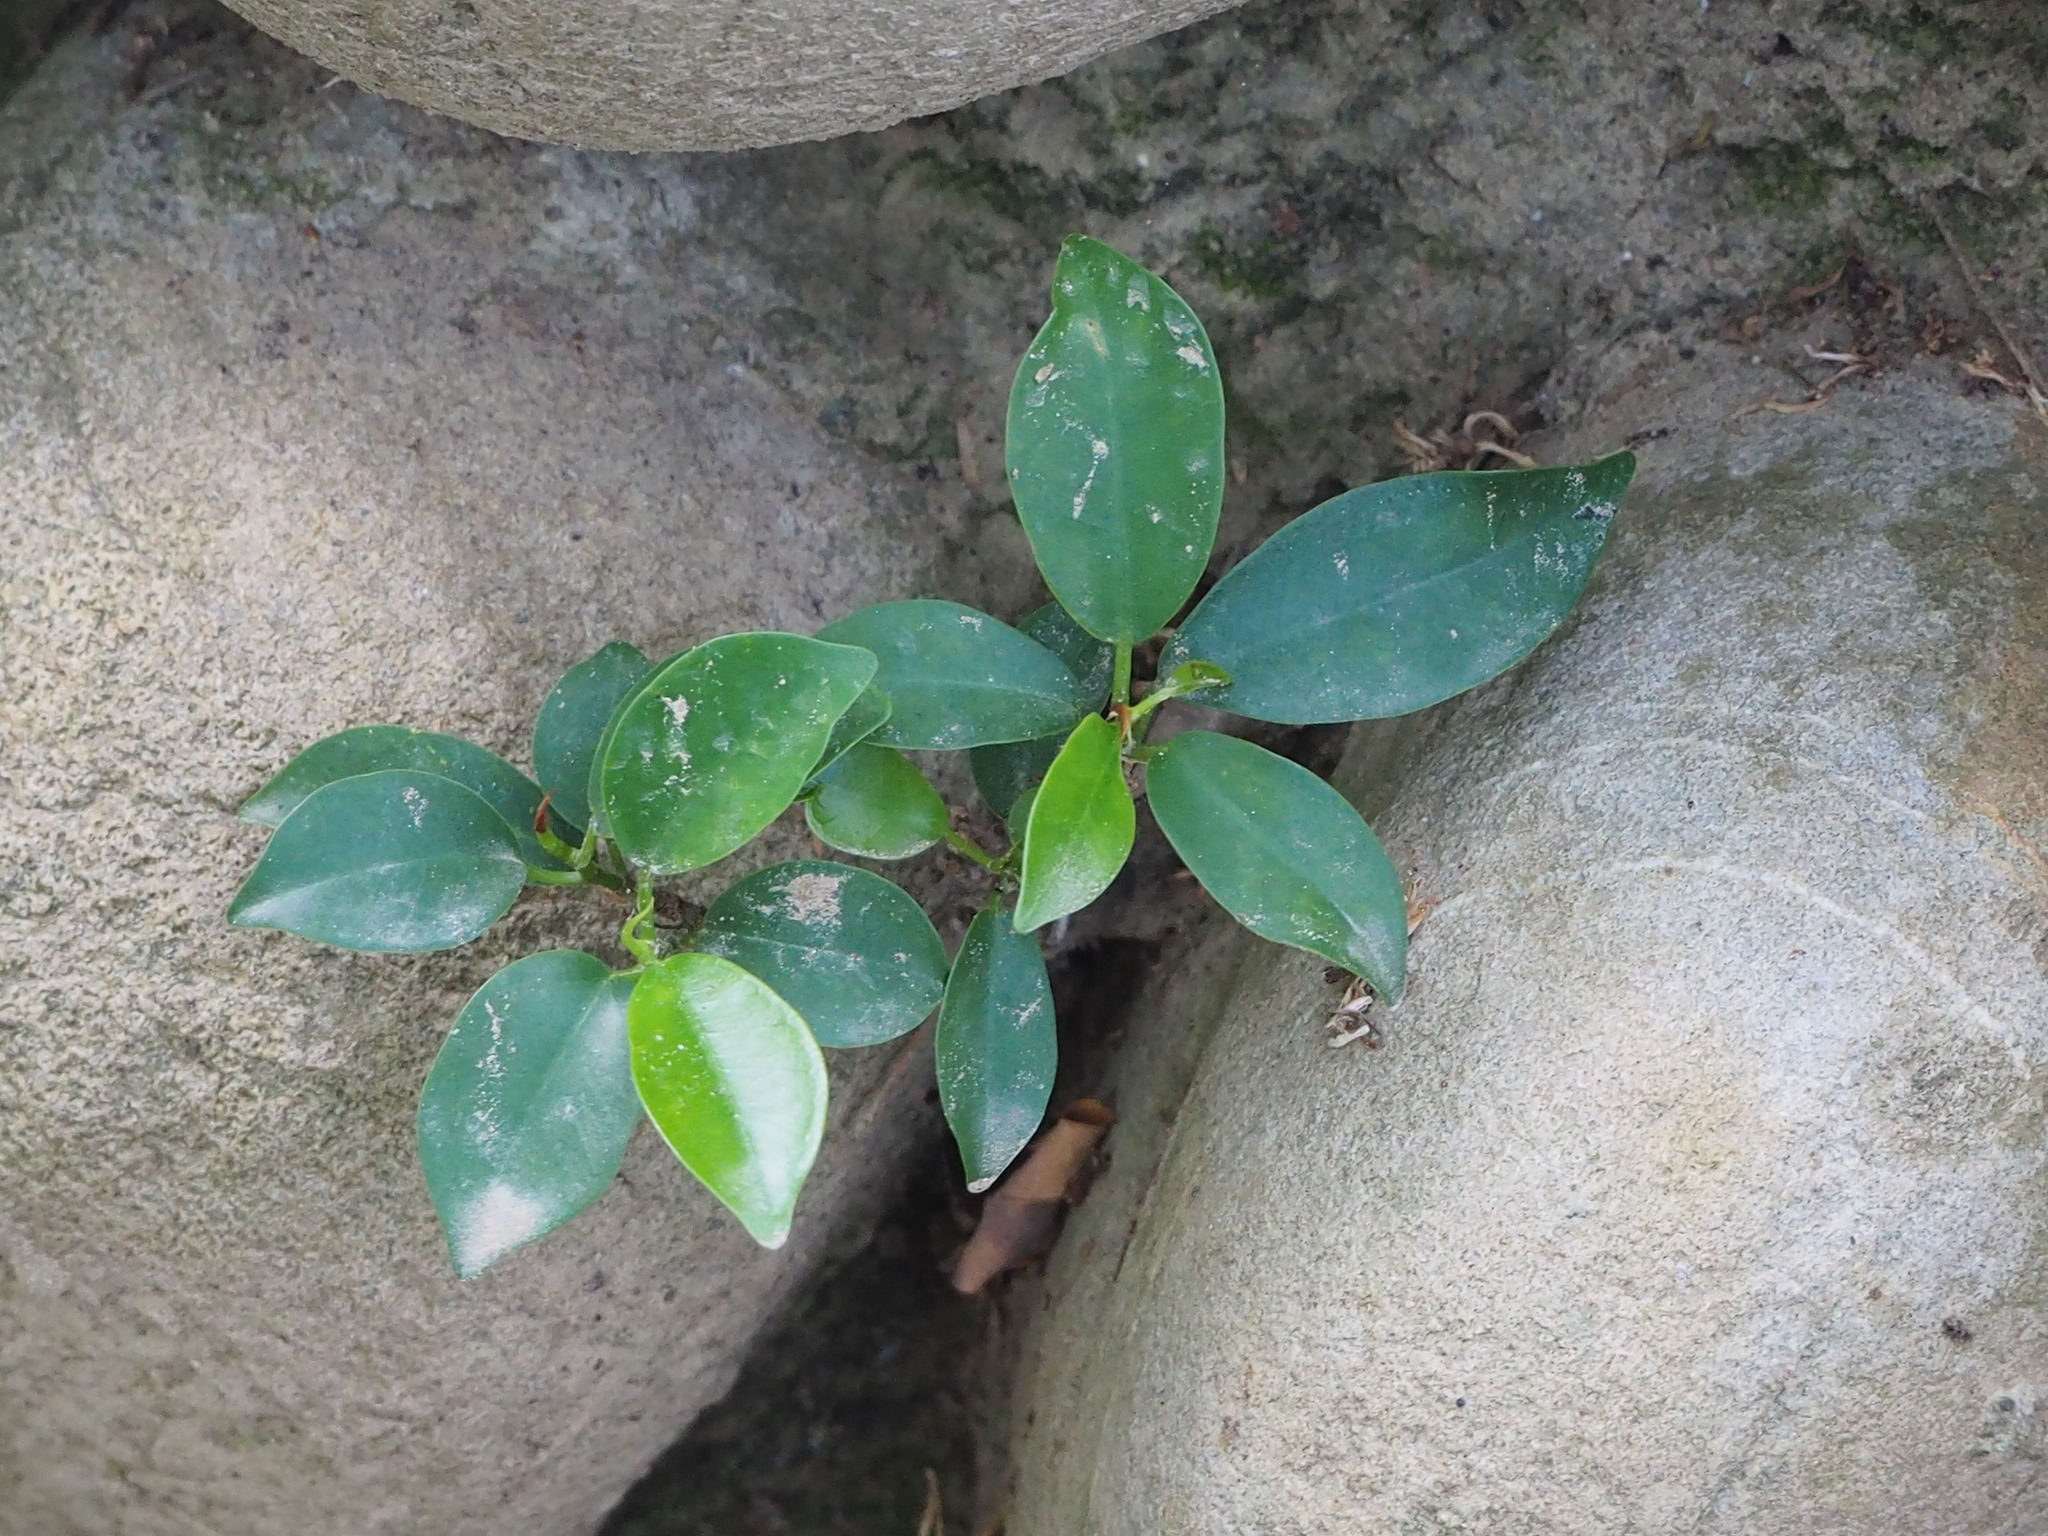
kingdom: Plantae
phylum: Tracheophyta
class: Magnoliopsida
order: Rosales
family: Moraceae
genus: Ficus
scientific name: Ficus microcarpa
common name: Chinese banyan
